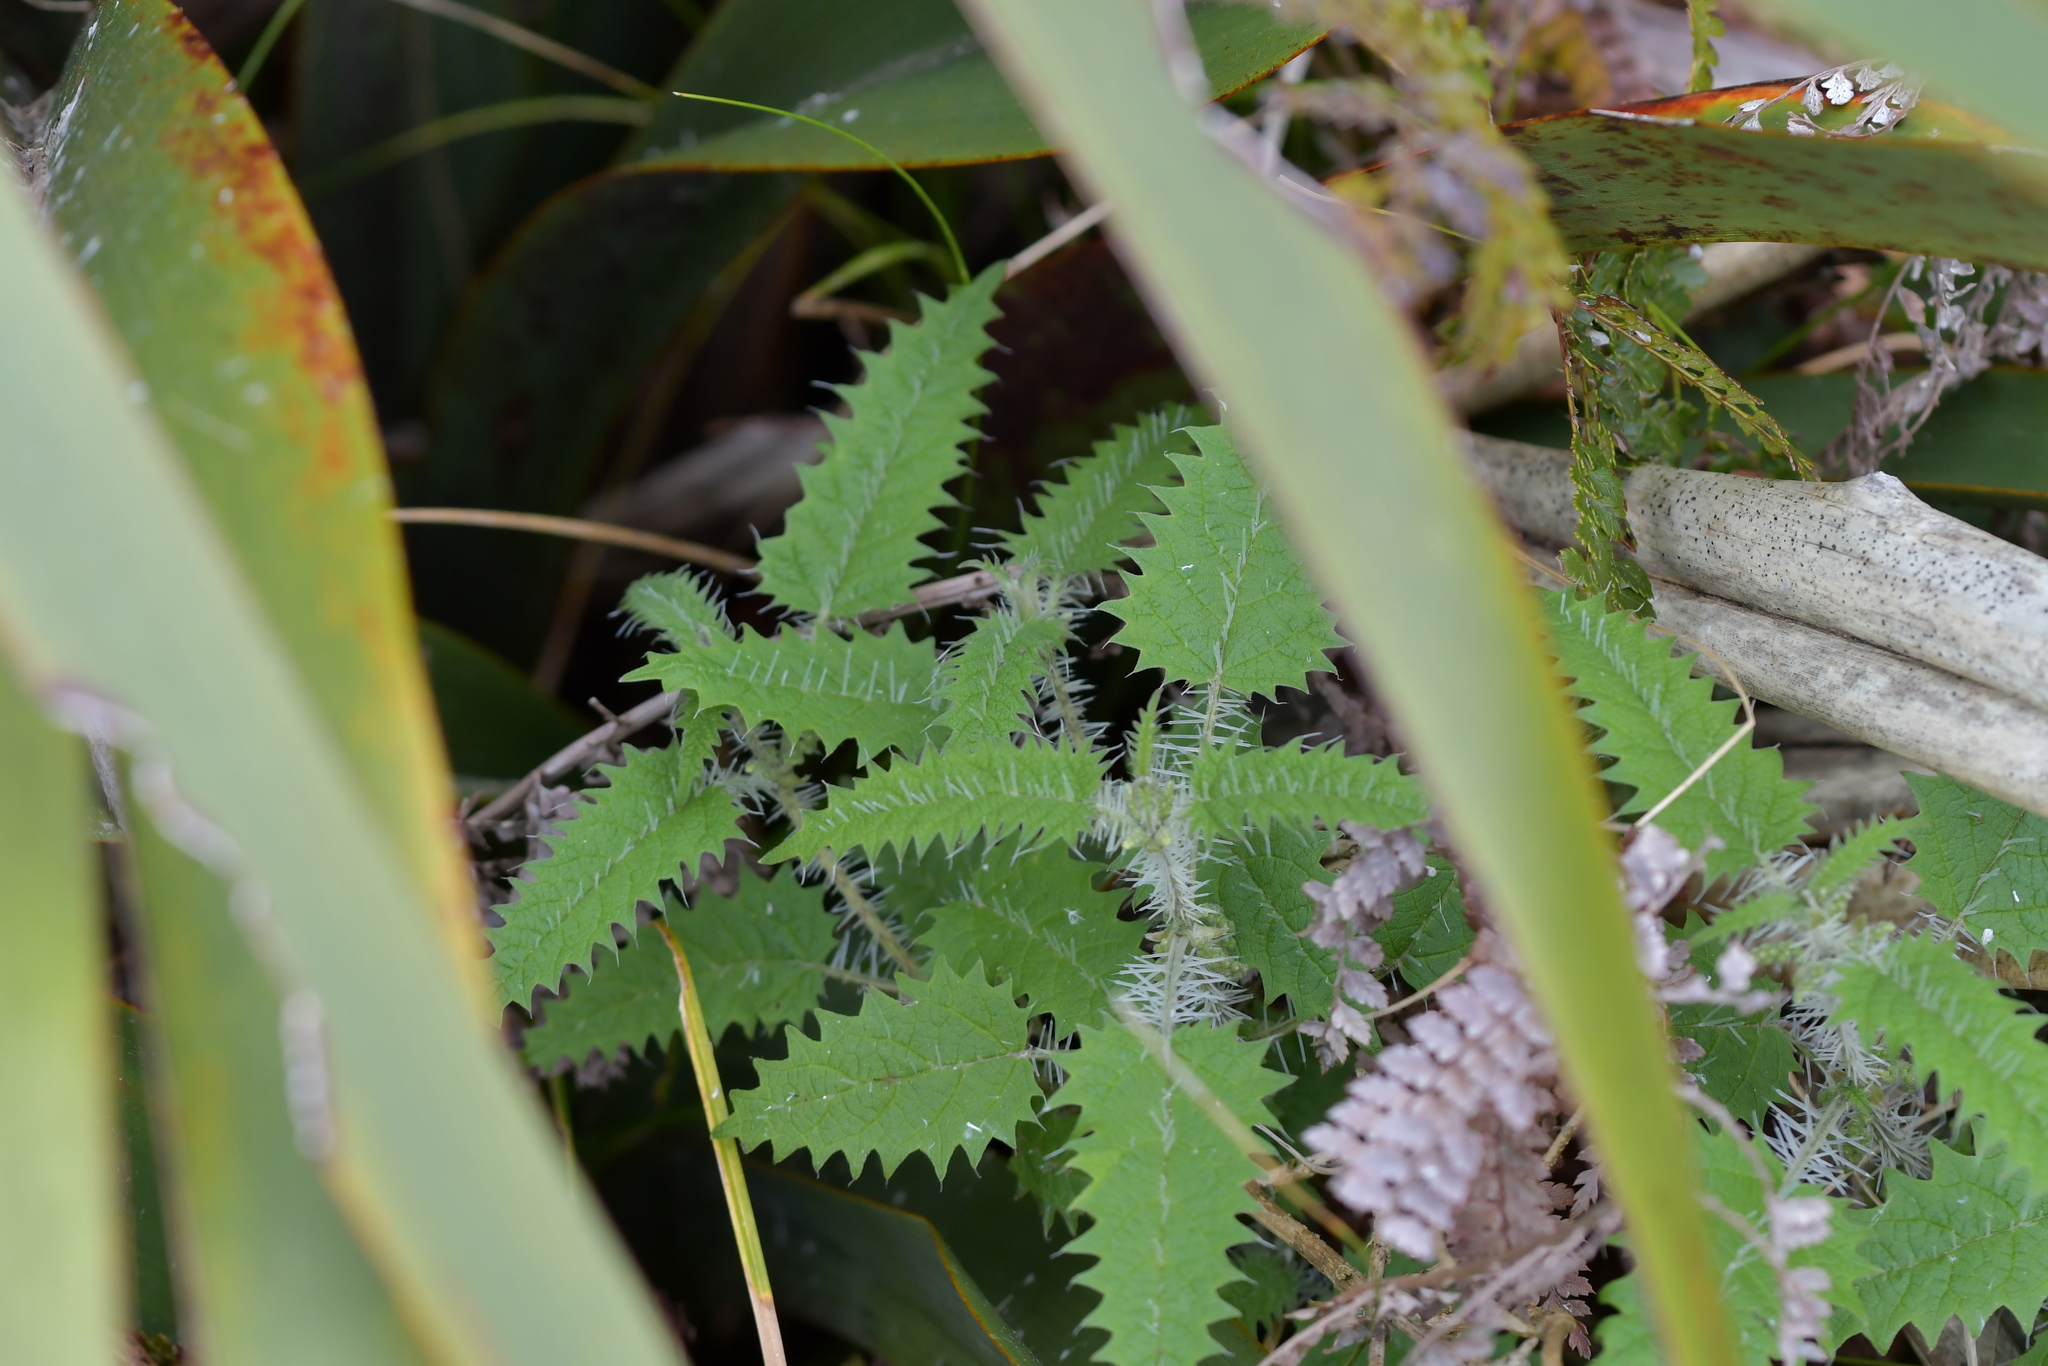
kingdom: Plantae
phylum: Tracheophyta
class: Magnoliopsida
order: Rosales
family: Urticaceae
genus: Urtica
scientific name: Urtica ferox
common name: Tree nettle
